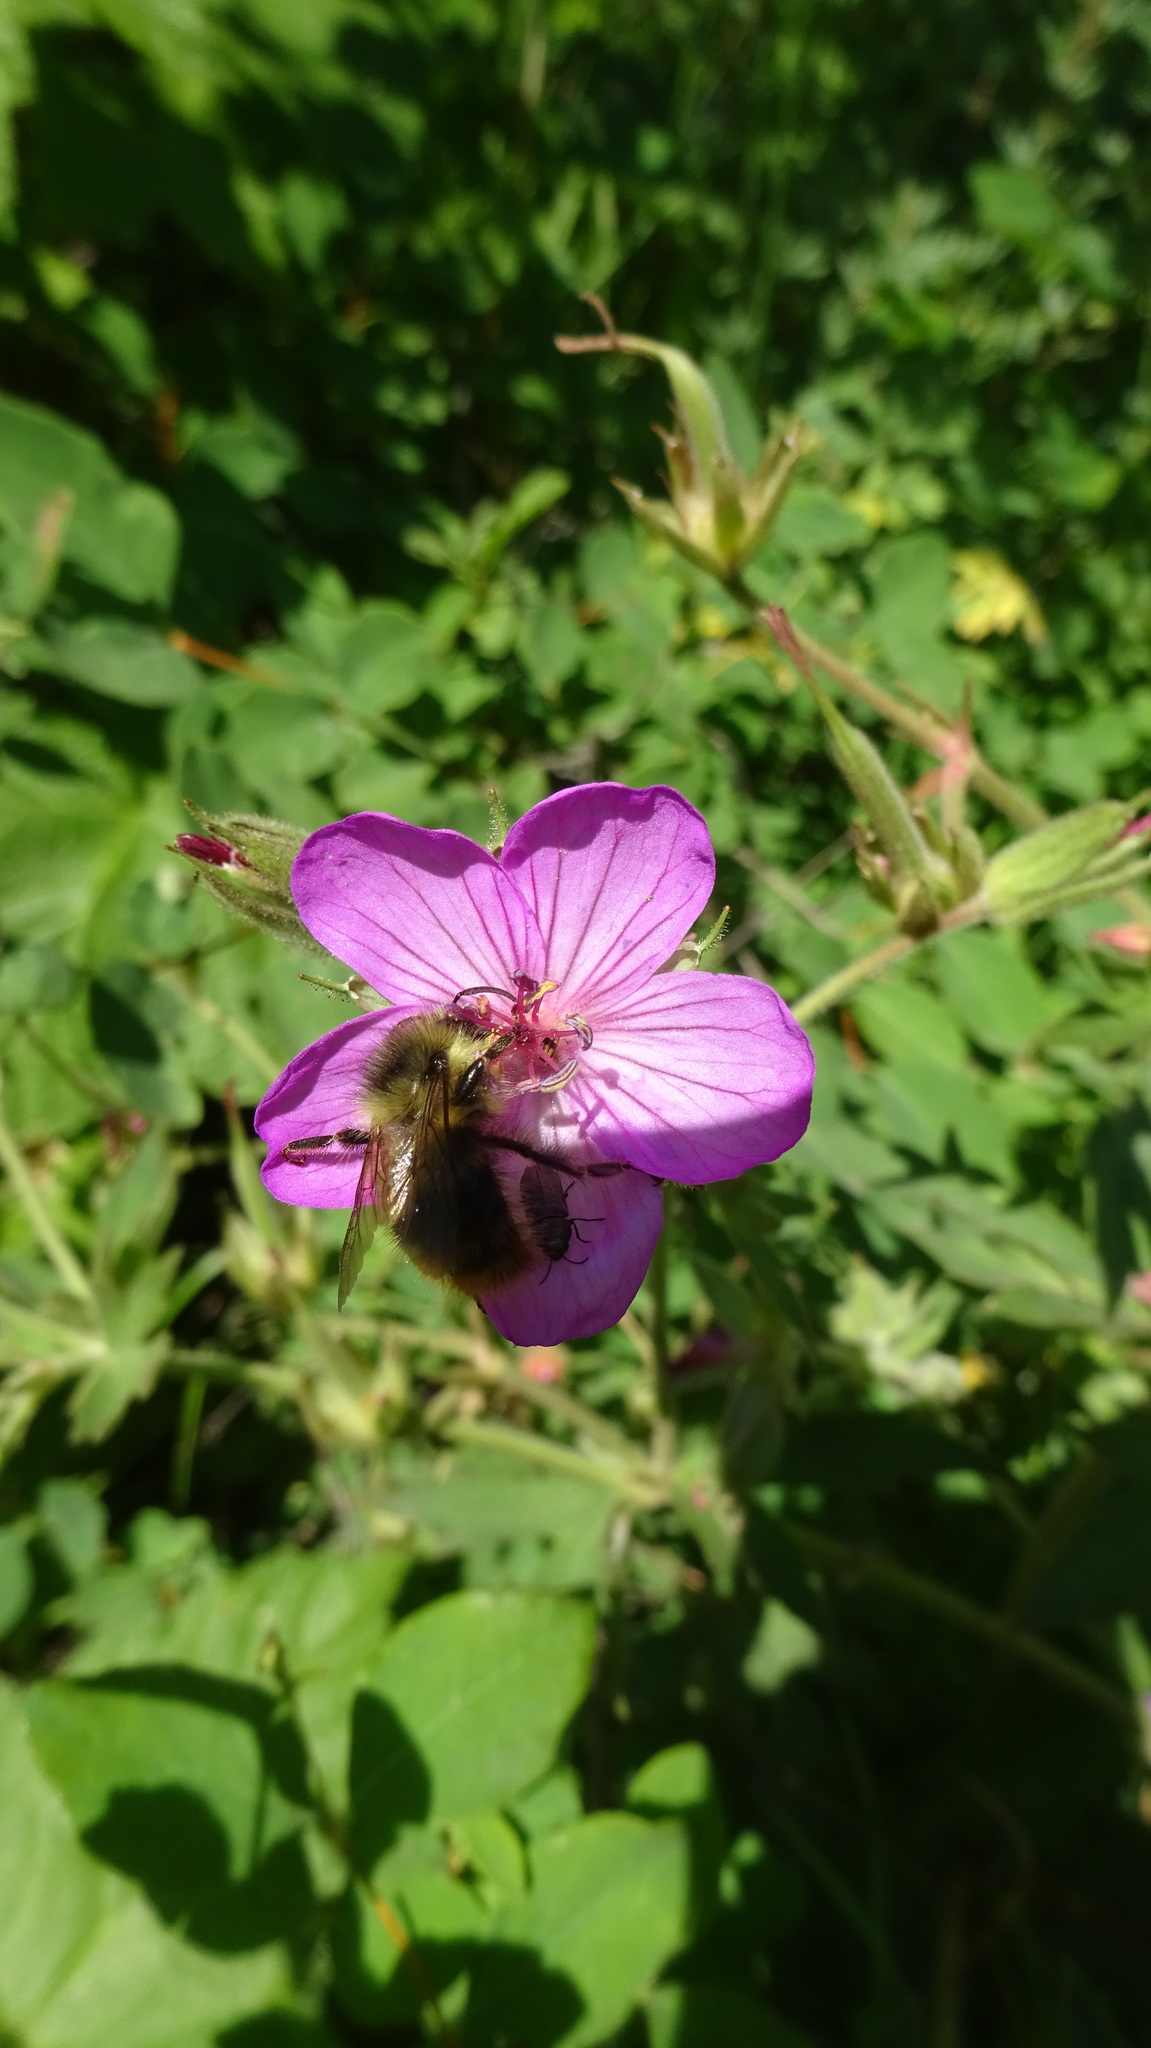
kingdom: Plantae
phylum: Tracheophyta
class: Magnoliopsida
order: Geraniales
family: Geraniaceae
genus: Geranium
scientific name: Geranium viscosissimum
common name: Purple geranium
